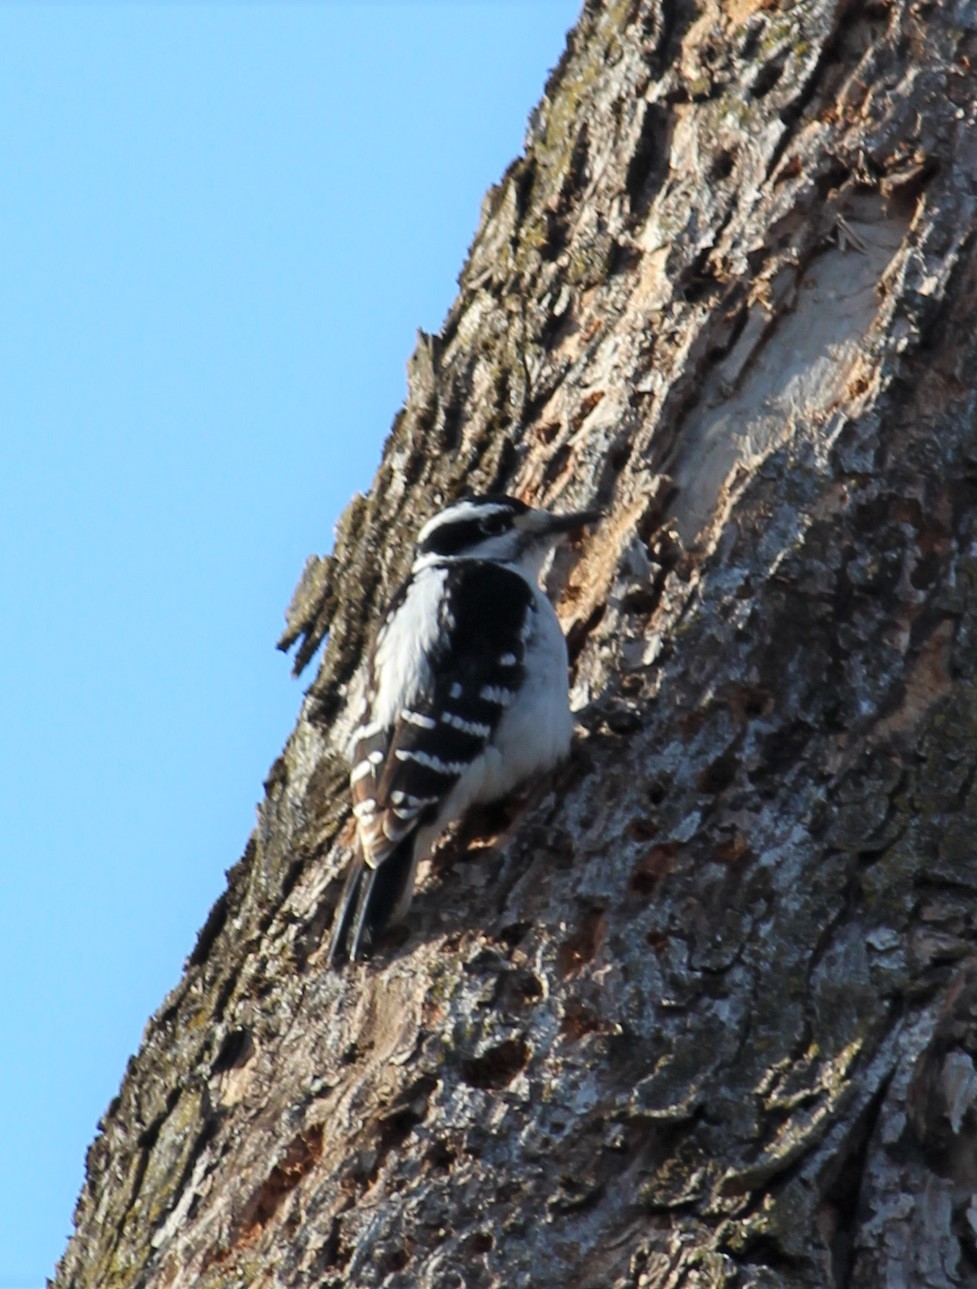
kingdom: Animalia
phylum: Chordata
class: Aves
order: Piciformes
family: Picidae
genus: Leuconotopicus
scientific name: Leuconotopicus villosus
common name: Hairy woodpecker
